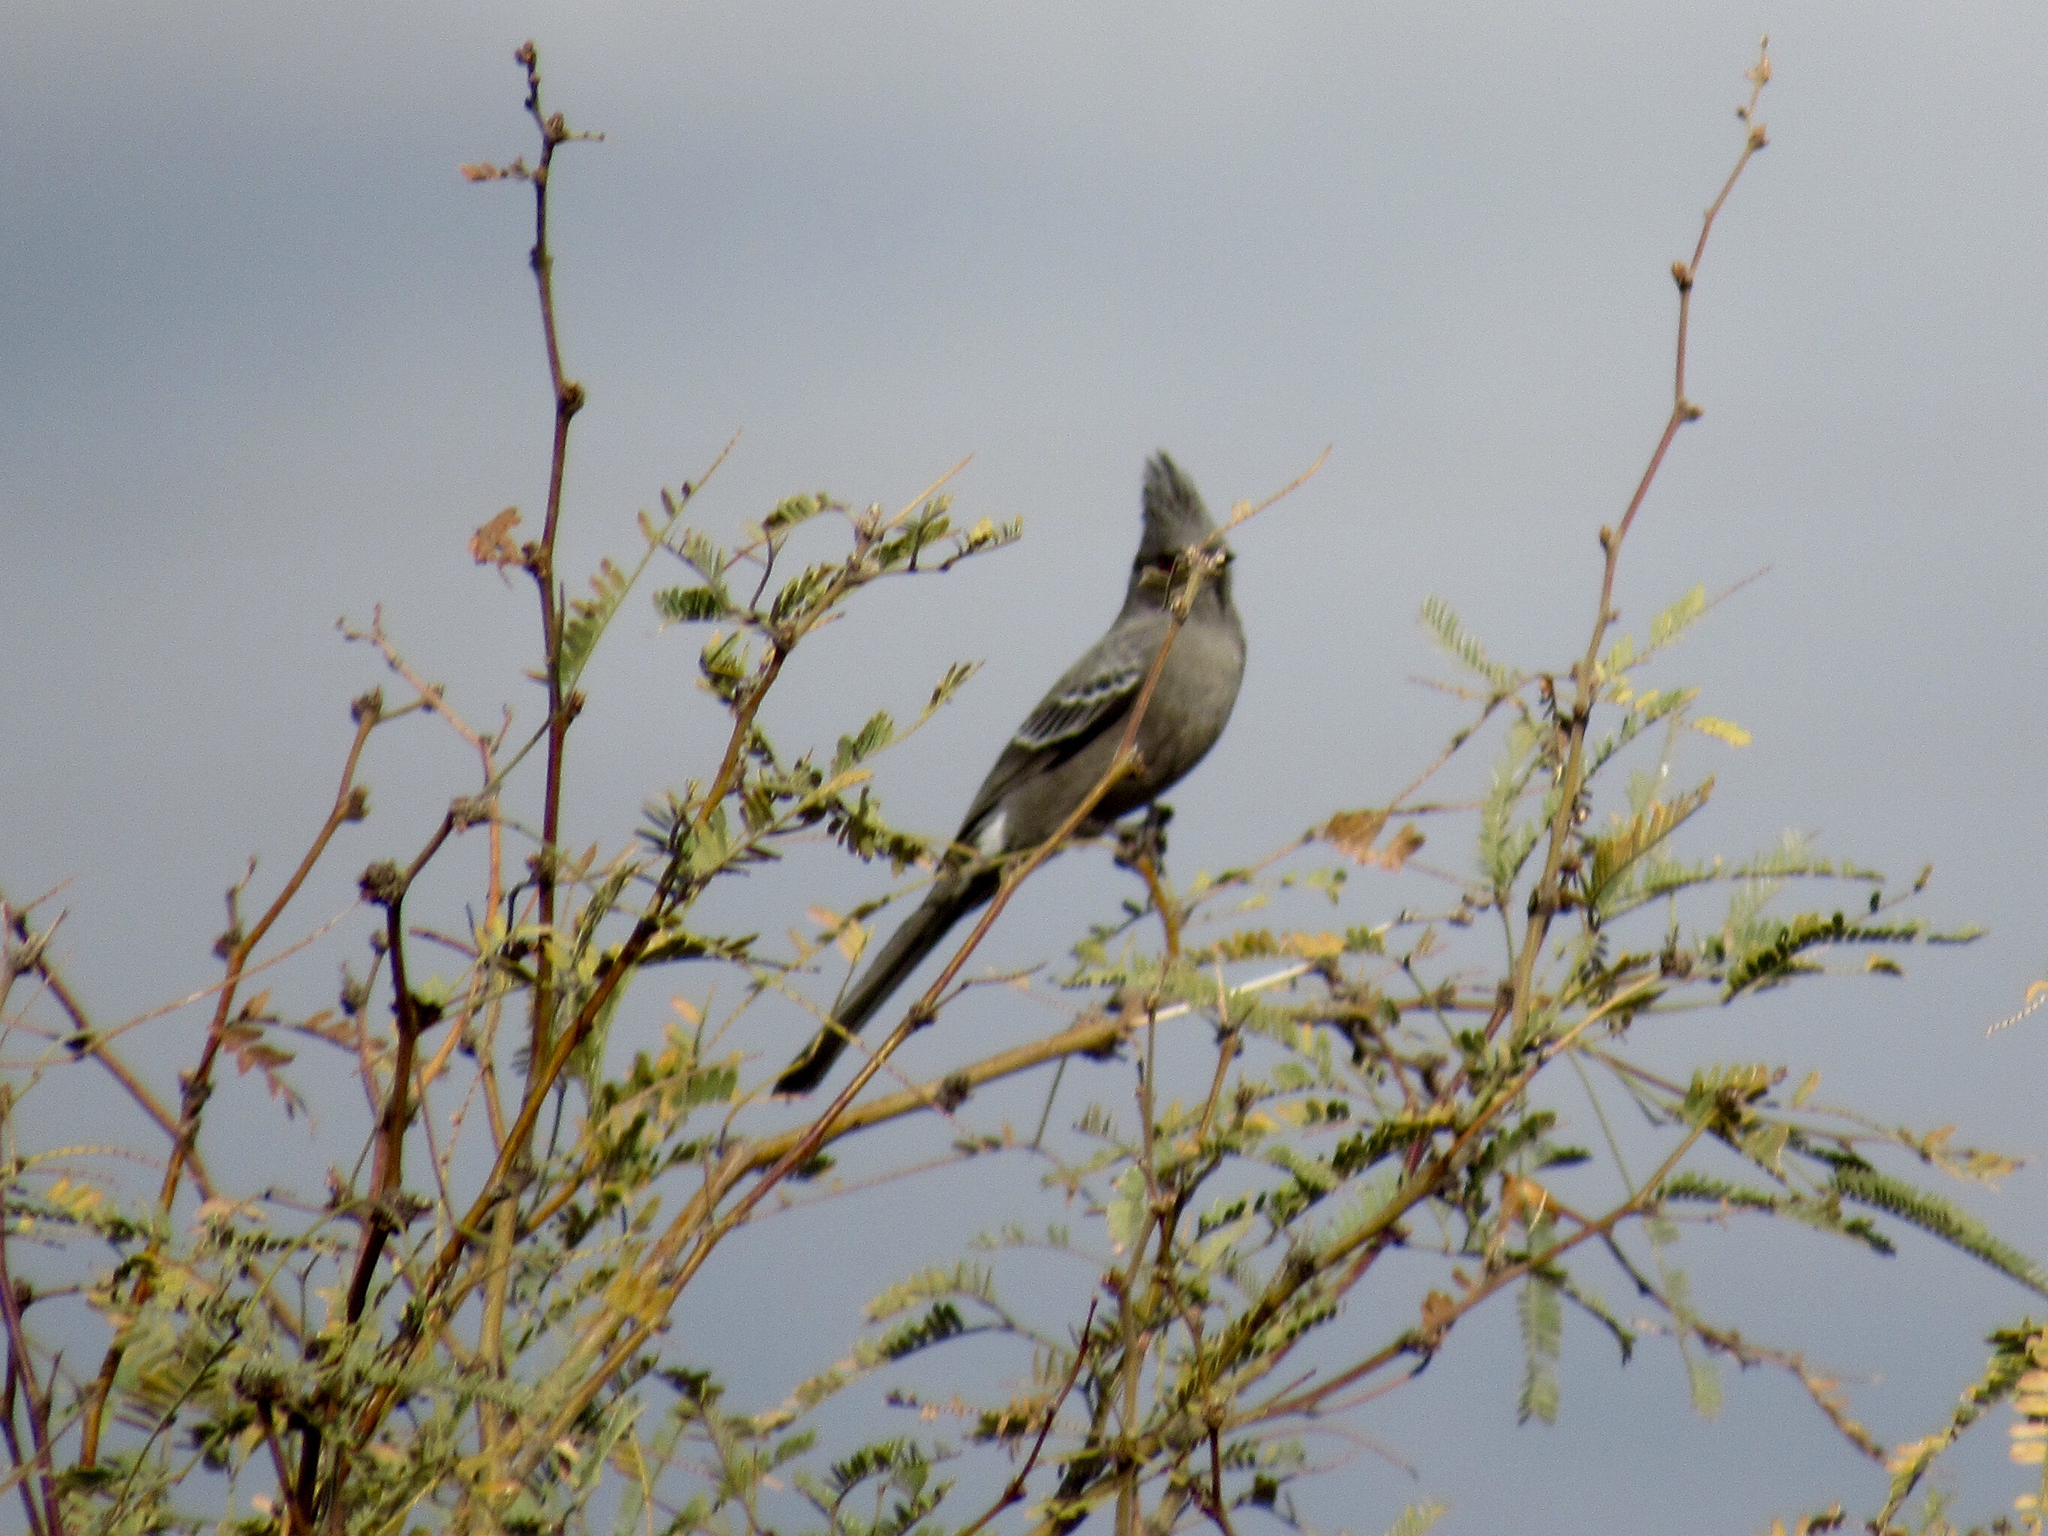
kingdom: Animalia
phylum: Chordata
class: Aves
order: Passeriformes
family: Ptilogonatidae
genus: Phainopepla
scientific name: Phainopepla nitens
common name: Phainopepla
